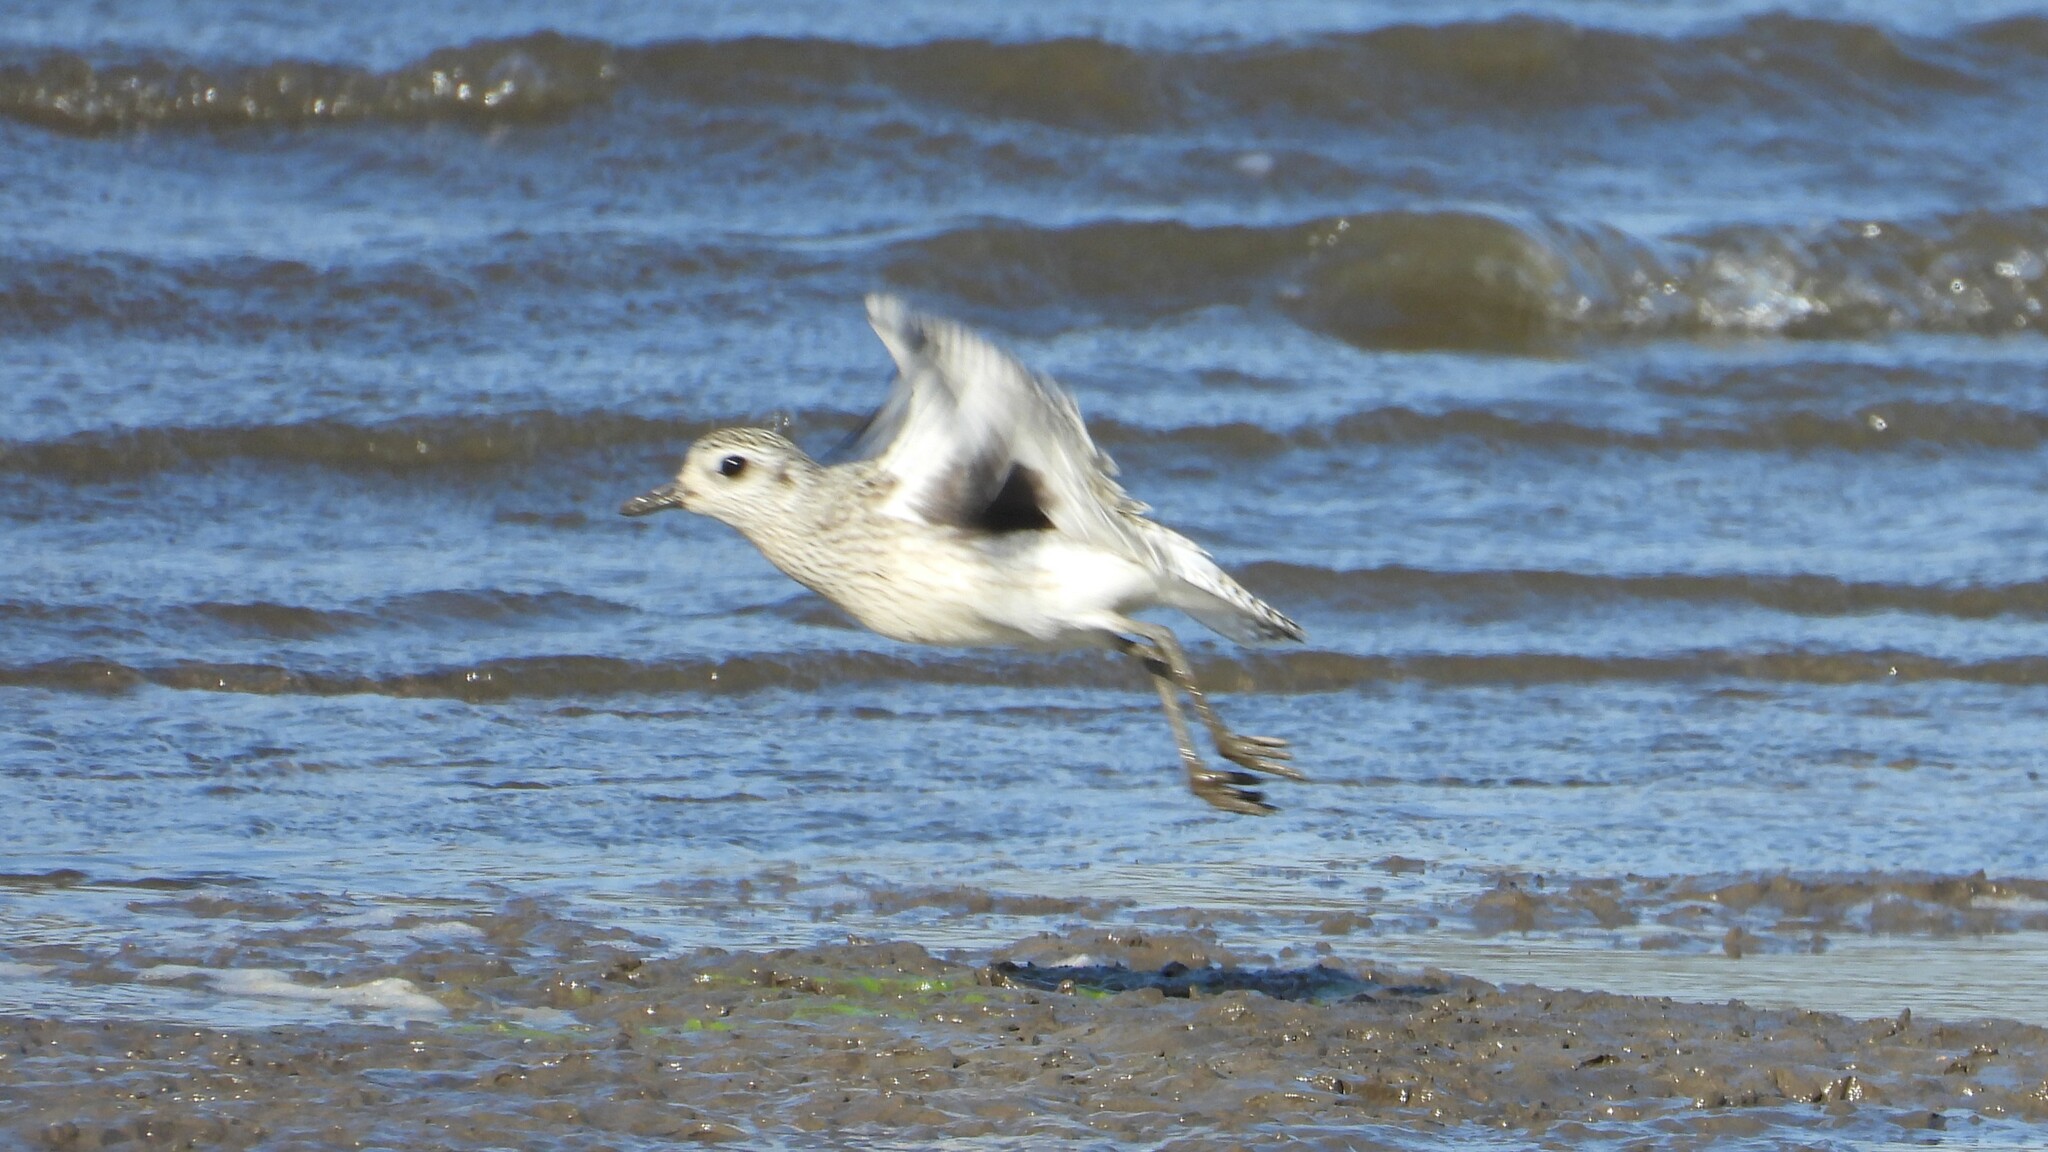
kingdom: Animalia
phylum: Chordata
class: Aves
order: Charadriiformes
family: Charadriidae
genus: Pluvialis
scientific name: Pluvialis squatarola
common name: Grey plover
